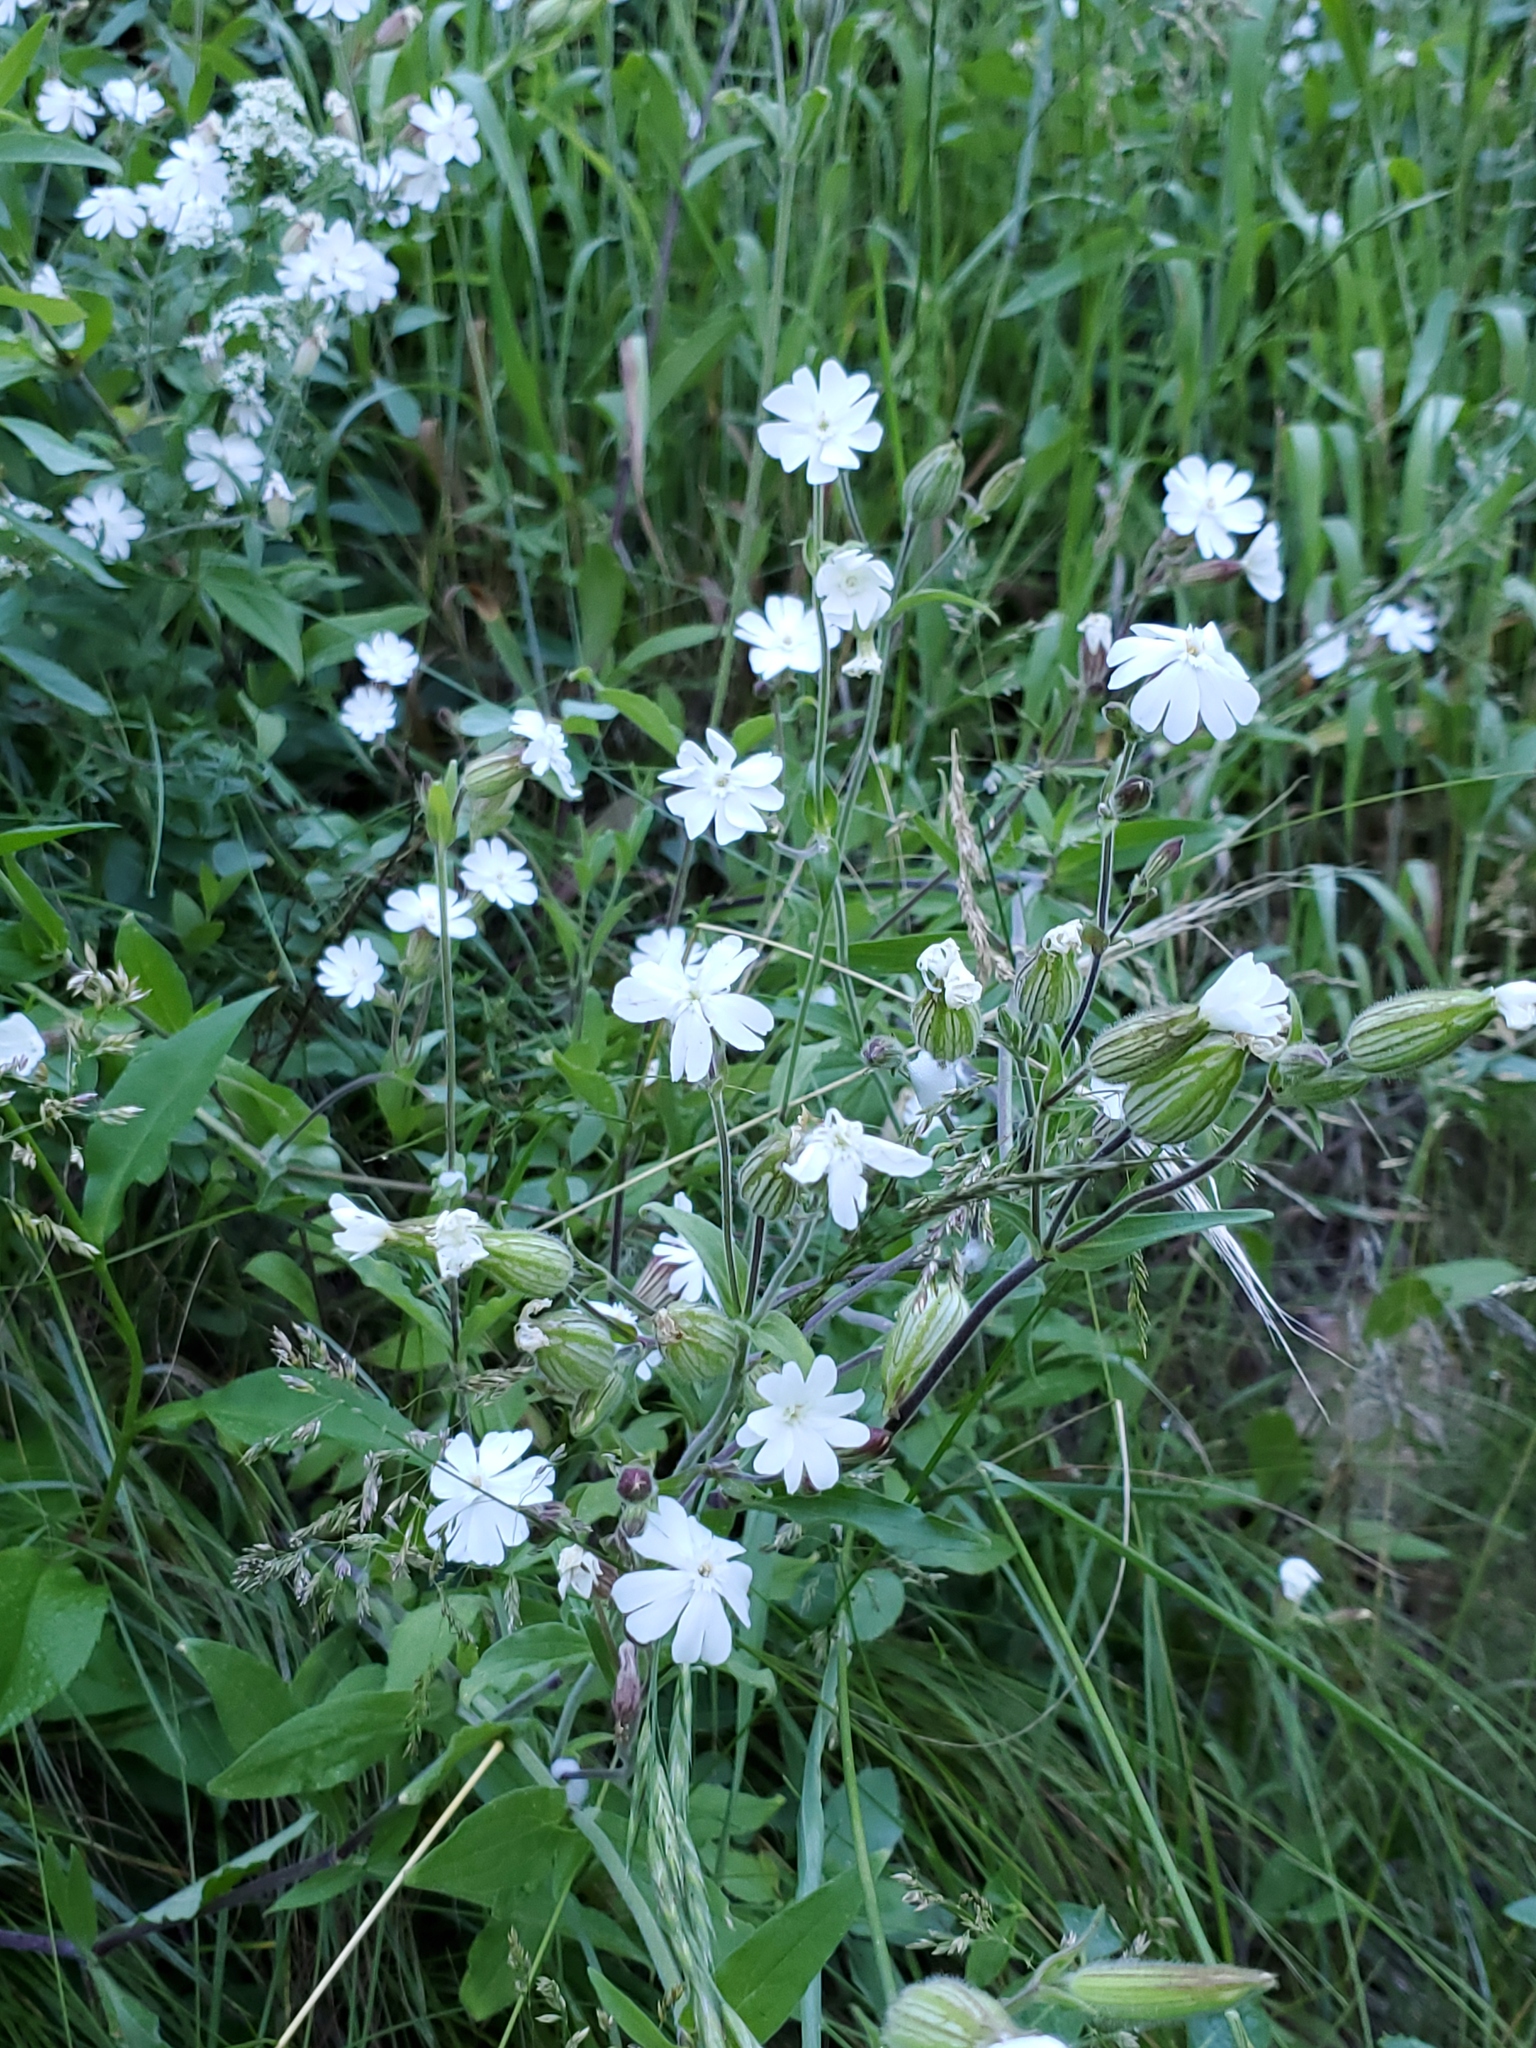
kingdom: Plantae
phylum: Tracheophyta
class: Magnoliopsida
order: Caryophyllales
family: Caryophyllaceae
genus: Silene
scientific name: Silene latifolia
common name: White campion
